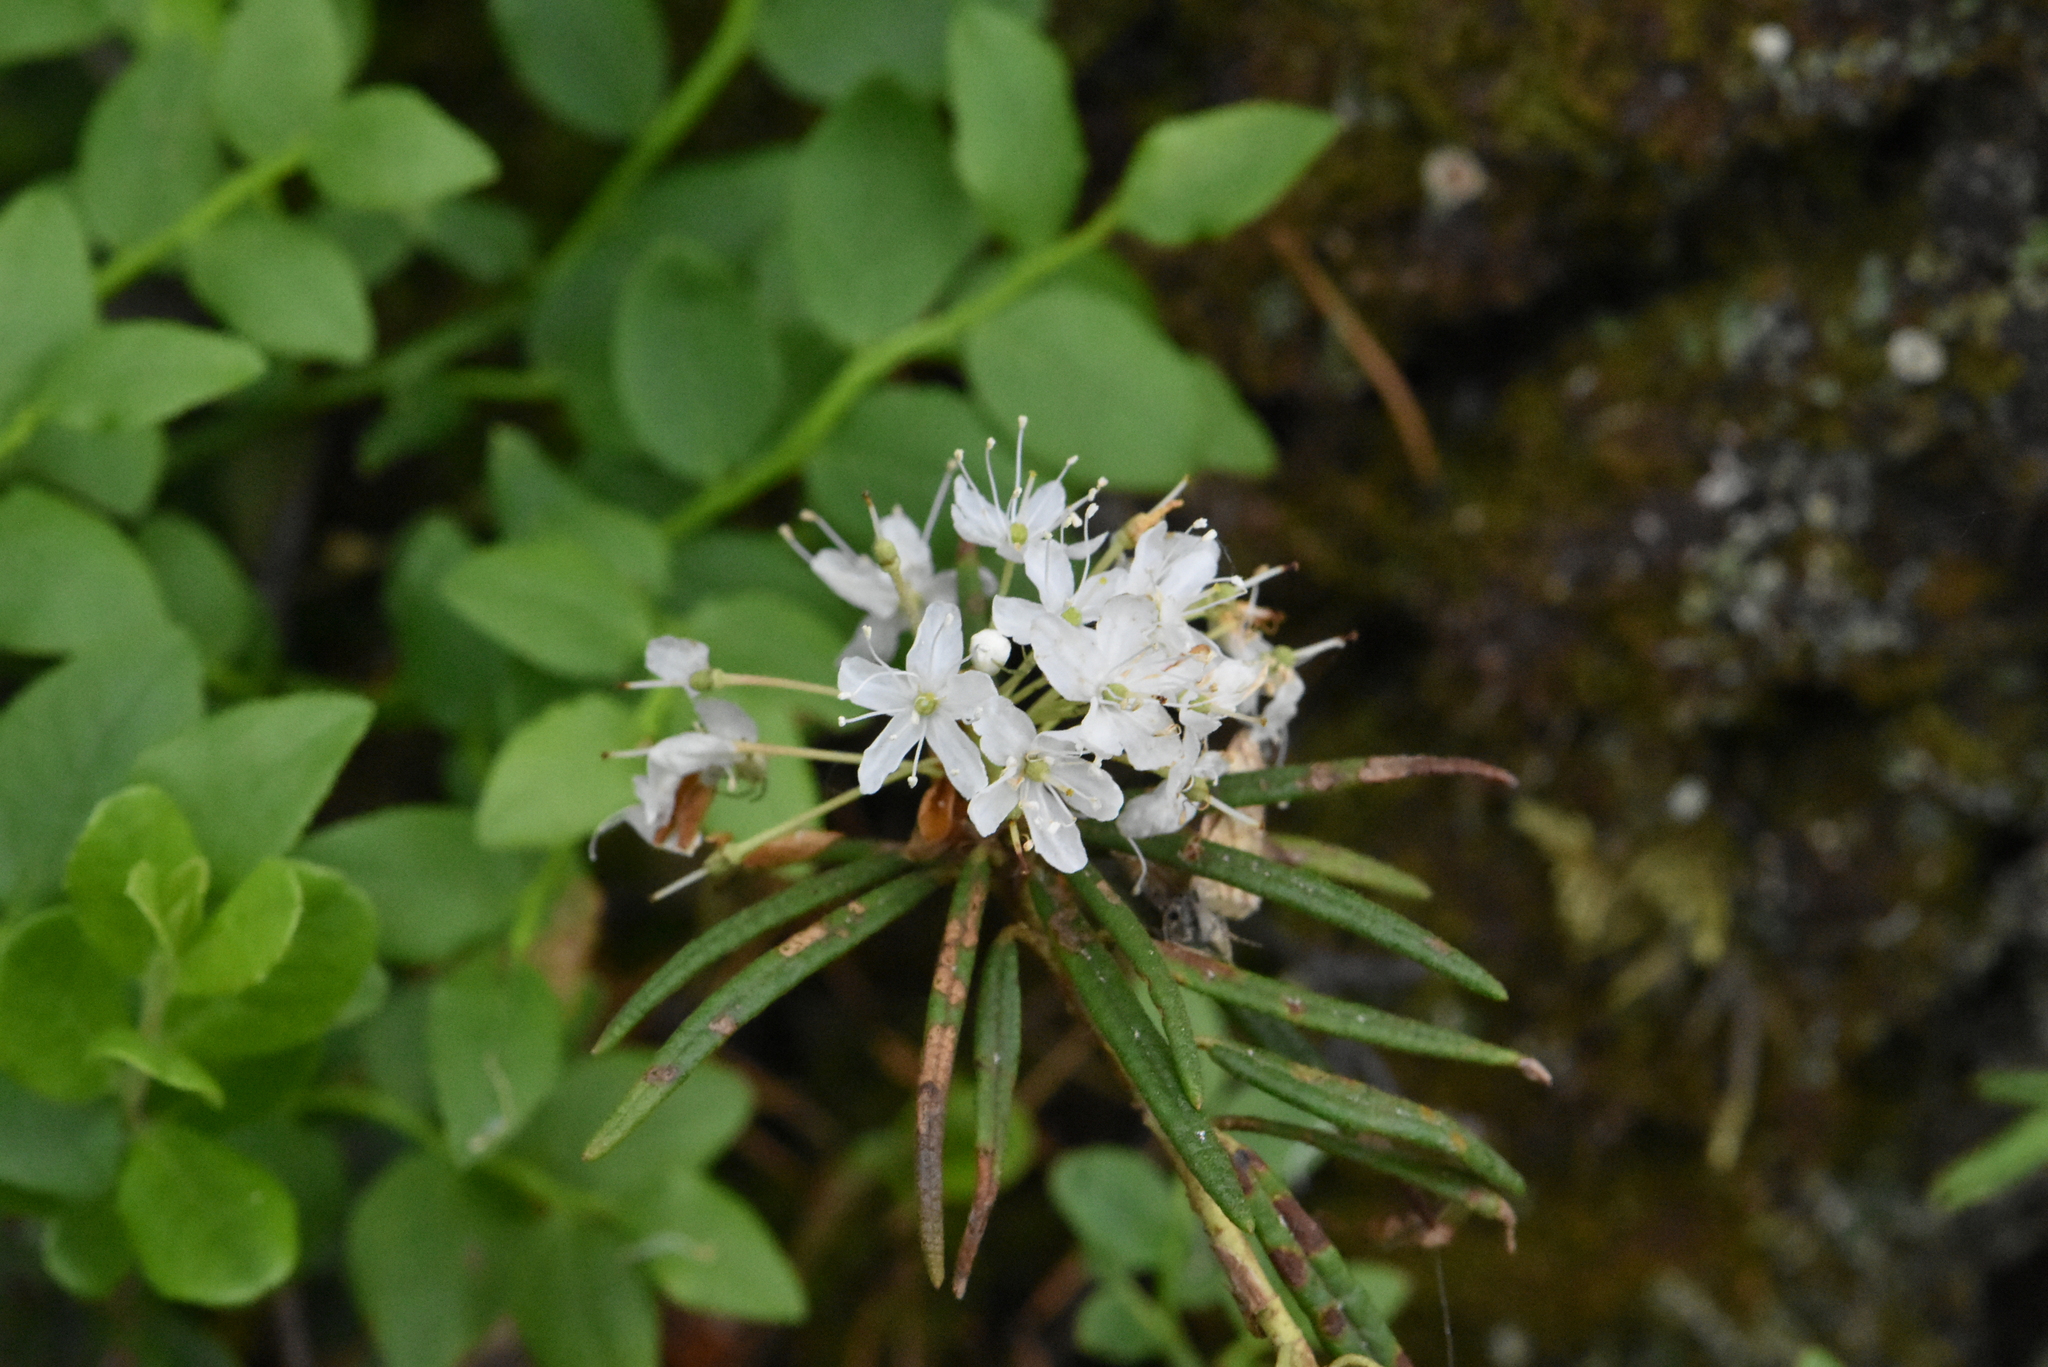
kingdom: Plantae
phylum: Tracheophyta
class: Magnoliopsida
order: Ericales
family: Ericaceae
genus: Rhododendron
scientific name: Rhododendron tomentosum
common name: Marsh labrador tea
